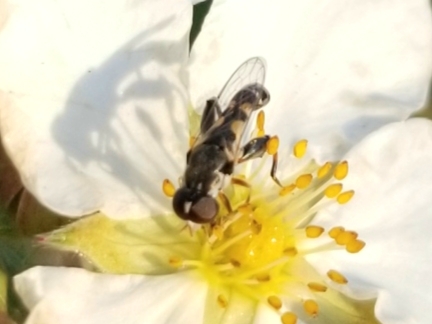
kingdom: Animalia
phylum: Arthropoda
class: Insecta
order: Diptera
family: Syrphidae
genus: Syritta
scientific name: Syritta pipiens
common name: Hover fly
